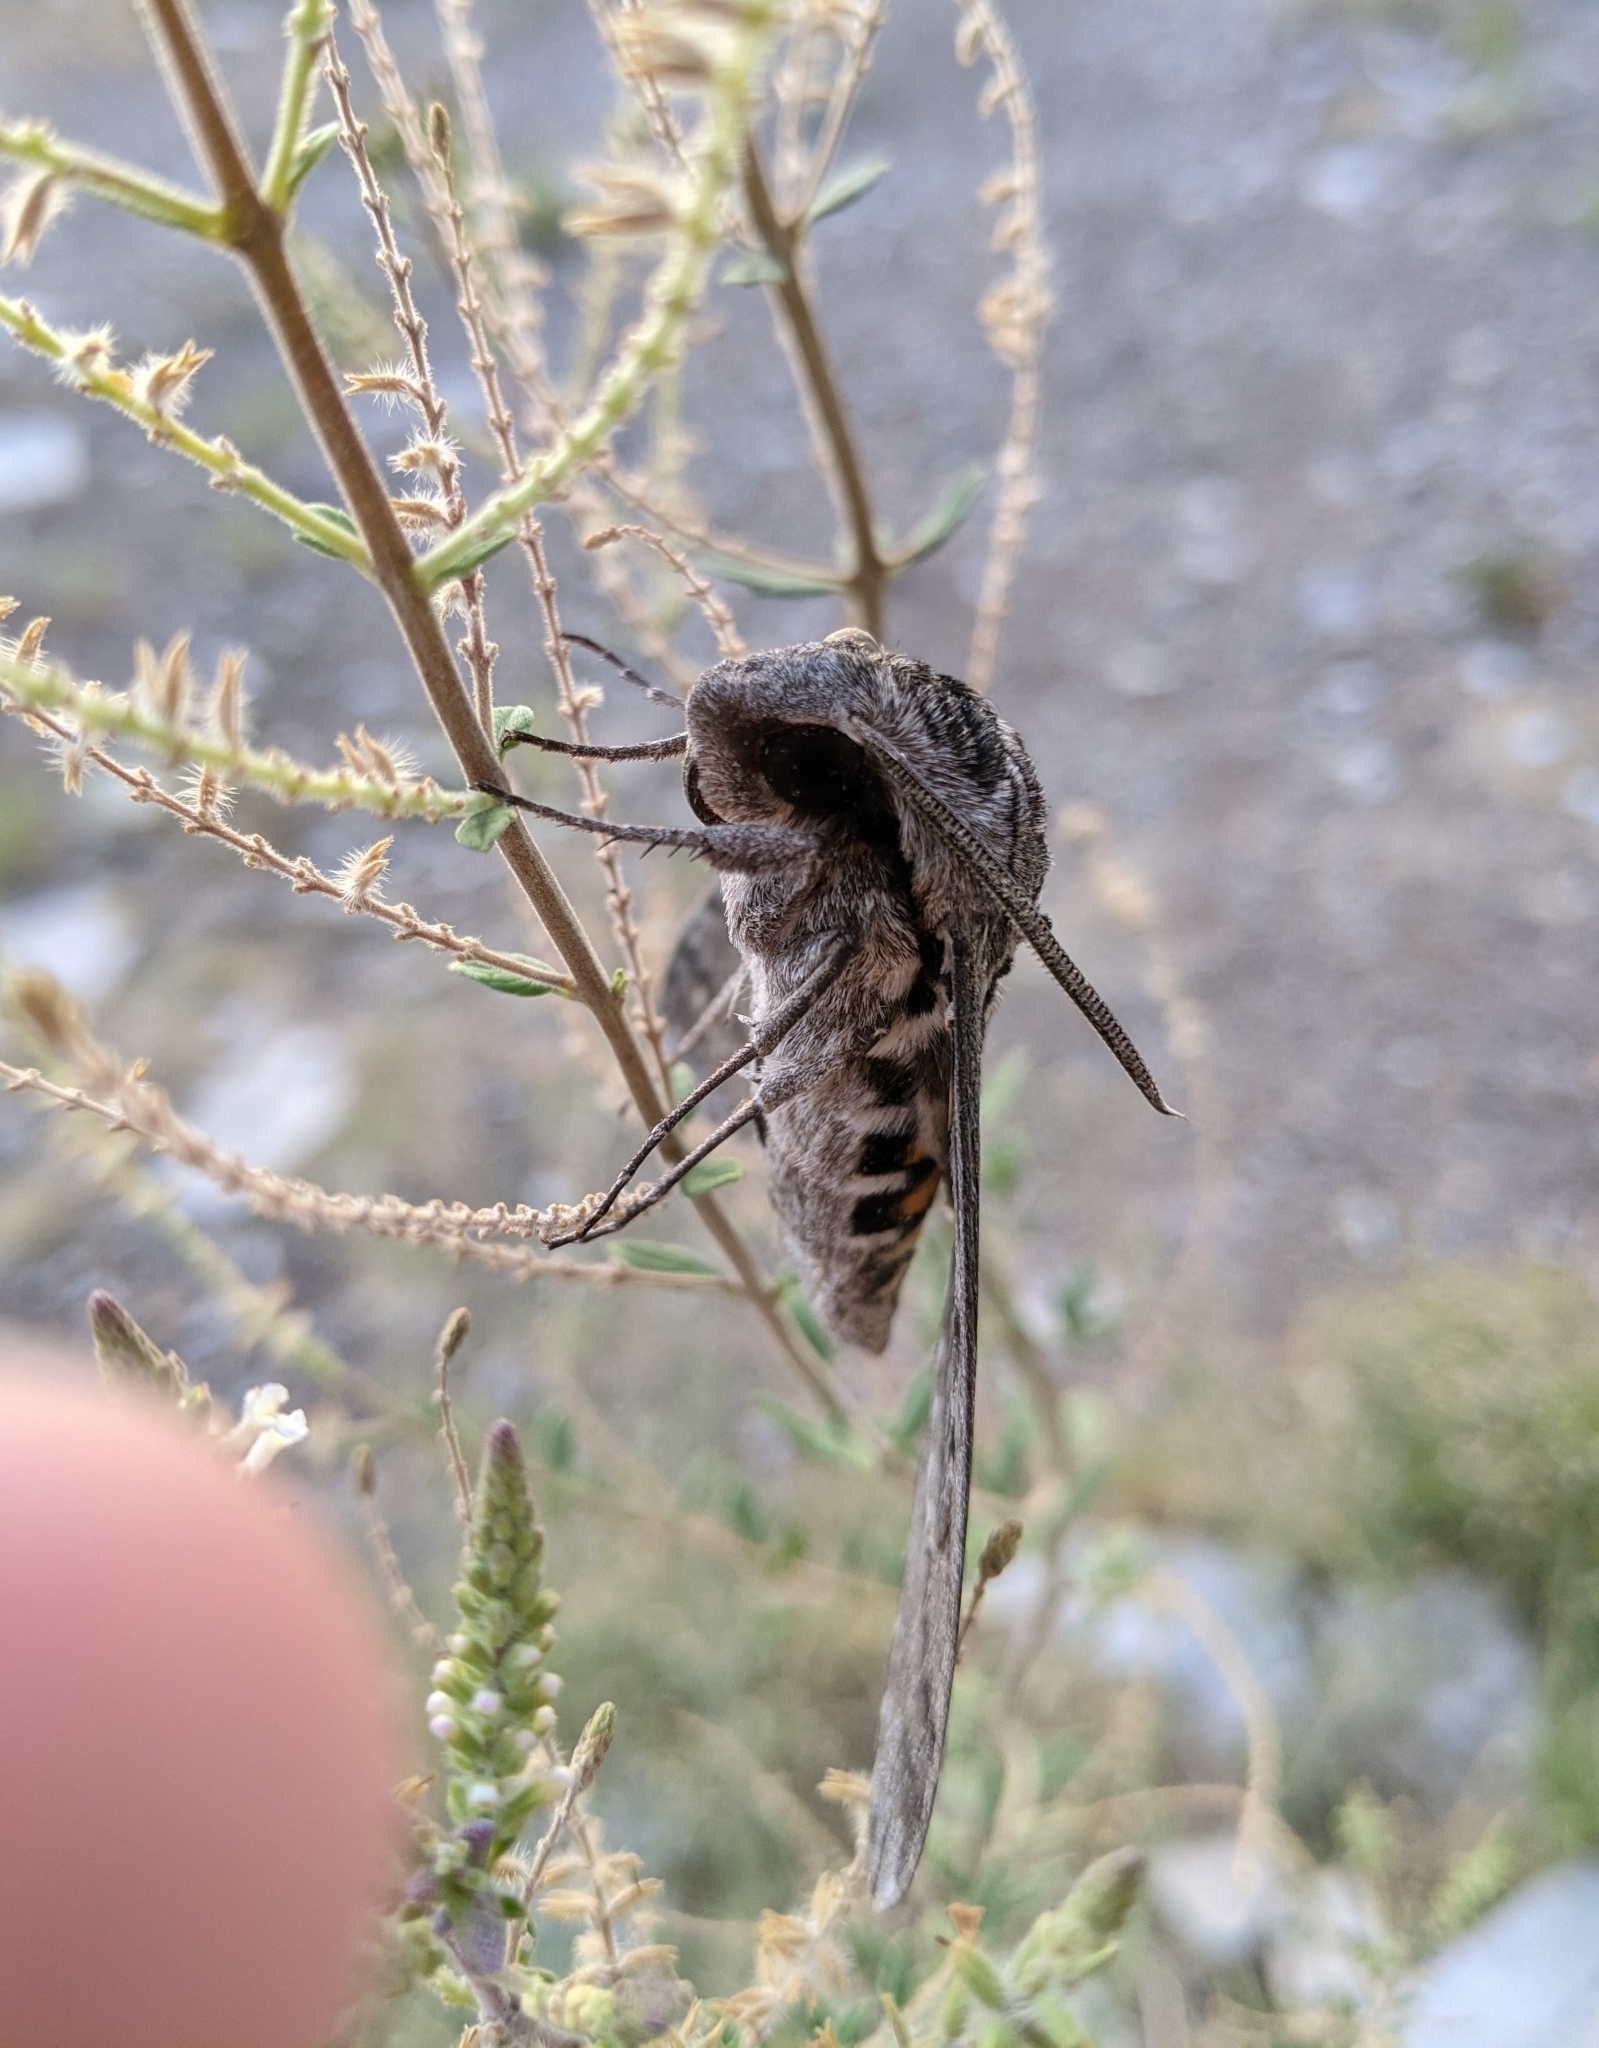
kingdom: Animalia
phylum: Arthropoda
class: Insecta
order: Lepidoptera
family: Sphingidae
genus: Manduca
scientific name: Manduca quinquemaculatus
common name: Five-spotted hawk-moth
